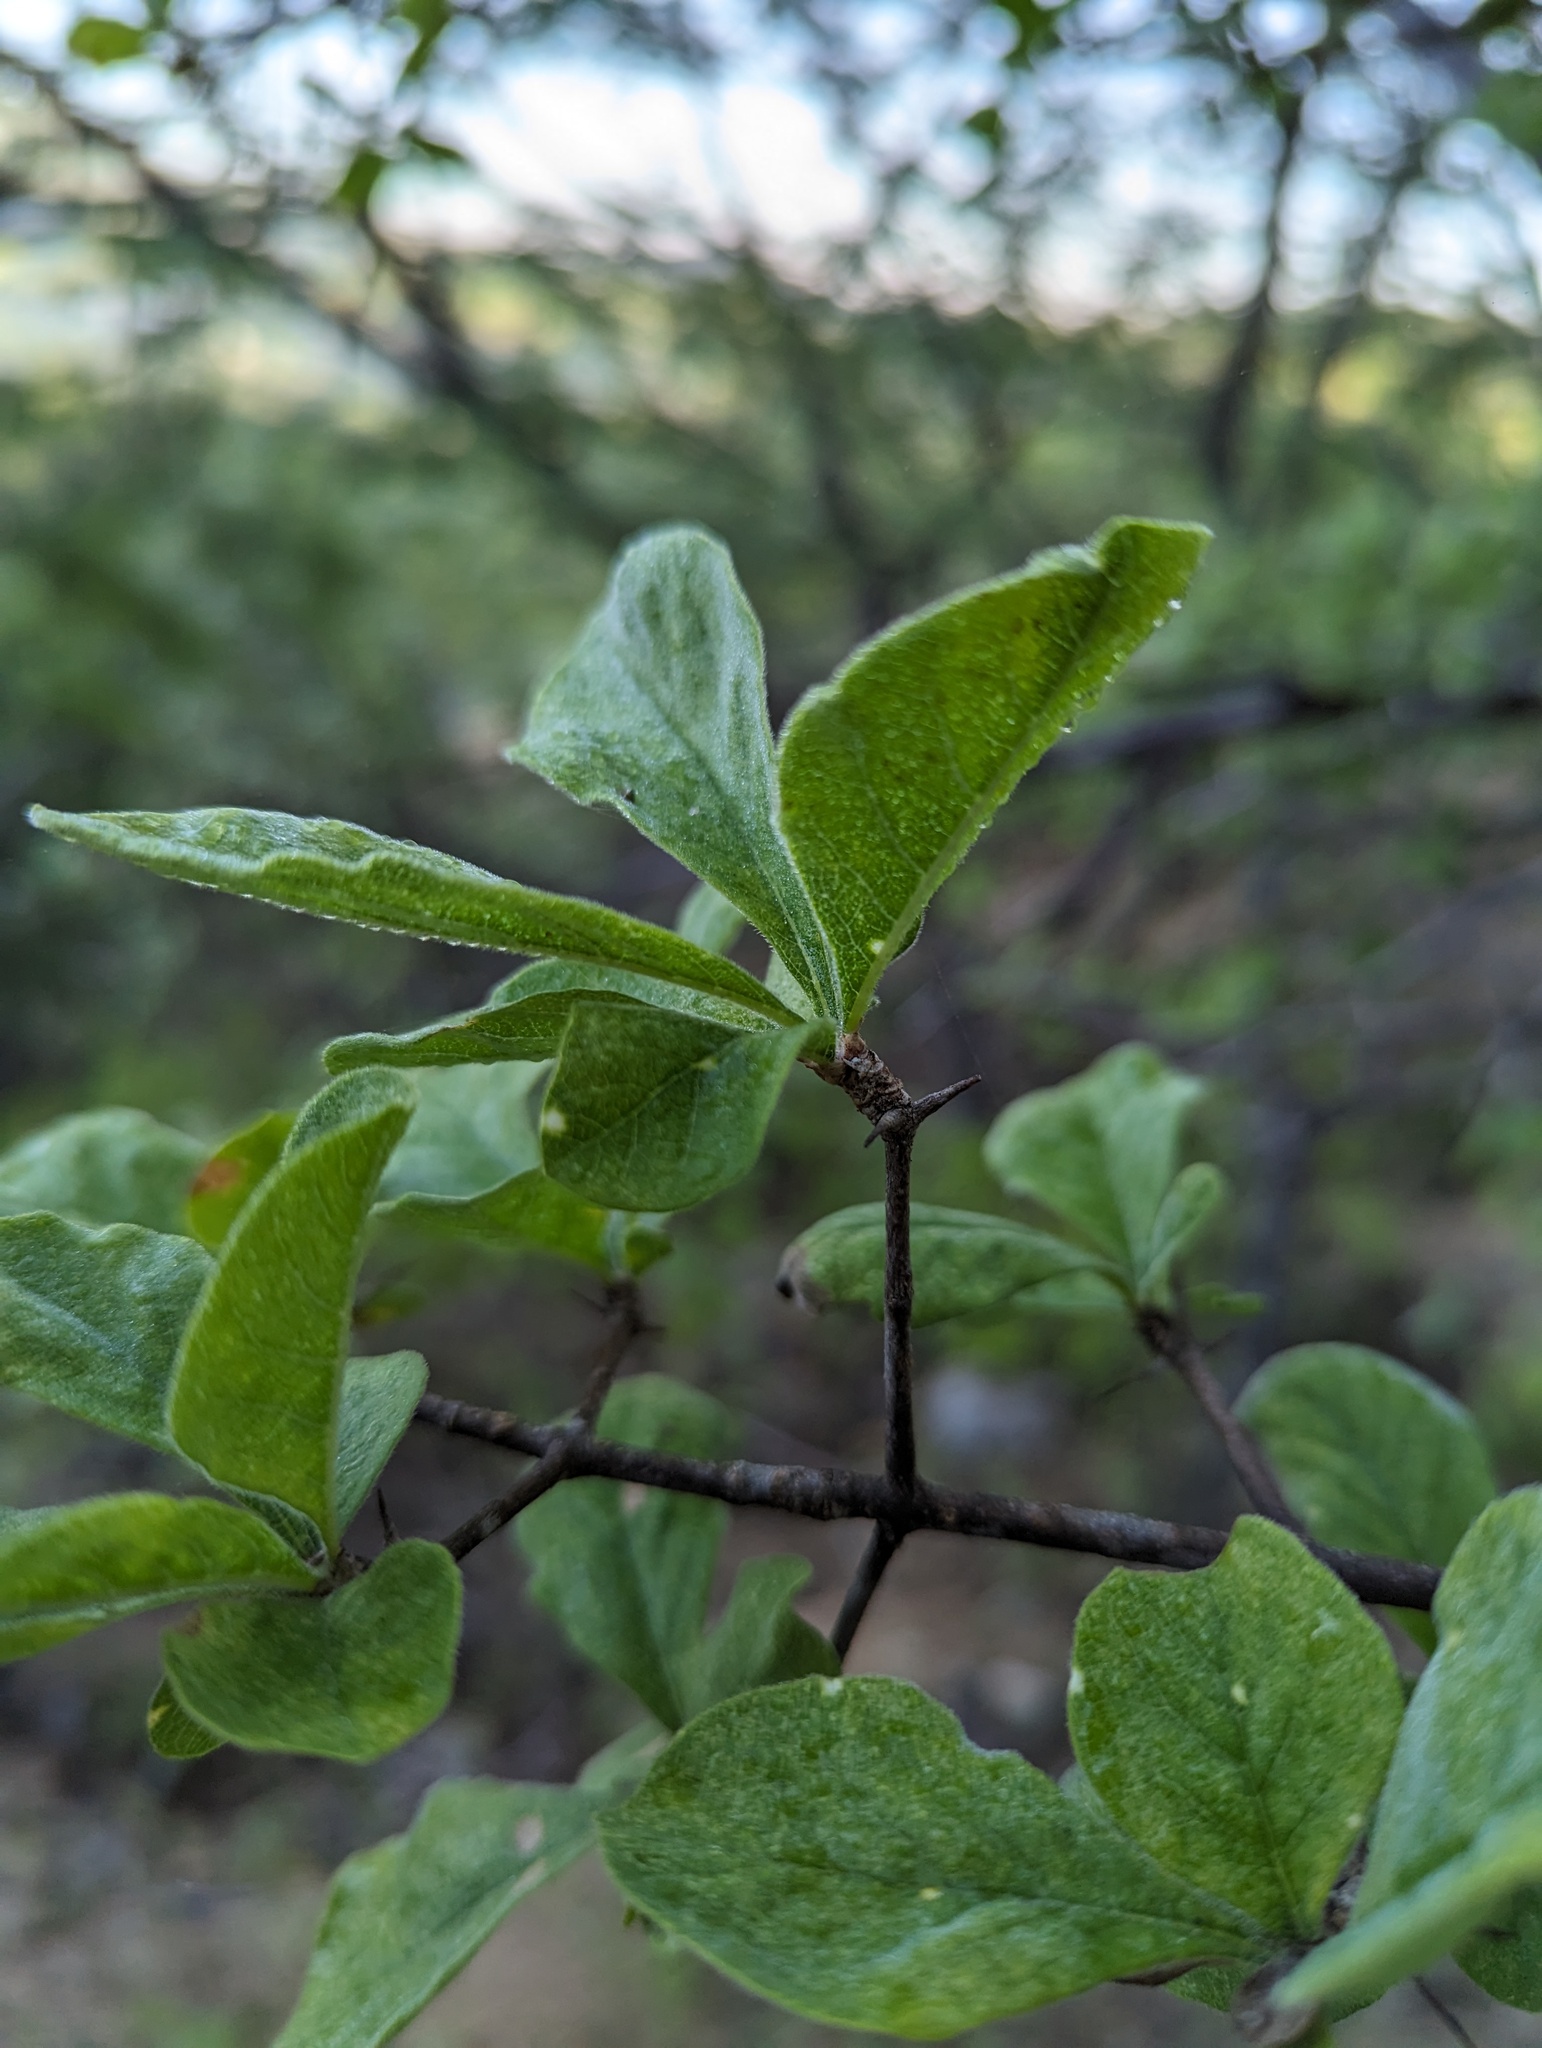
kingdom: Plantae
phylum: Tracheophyta
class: Magnoliopsida
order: Gentianales
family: Rubiaceae
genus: Randia
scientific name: Randia capitata
